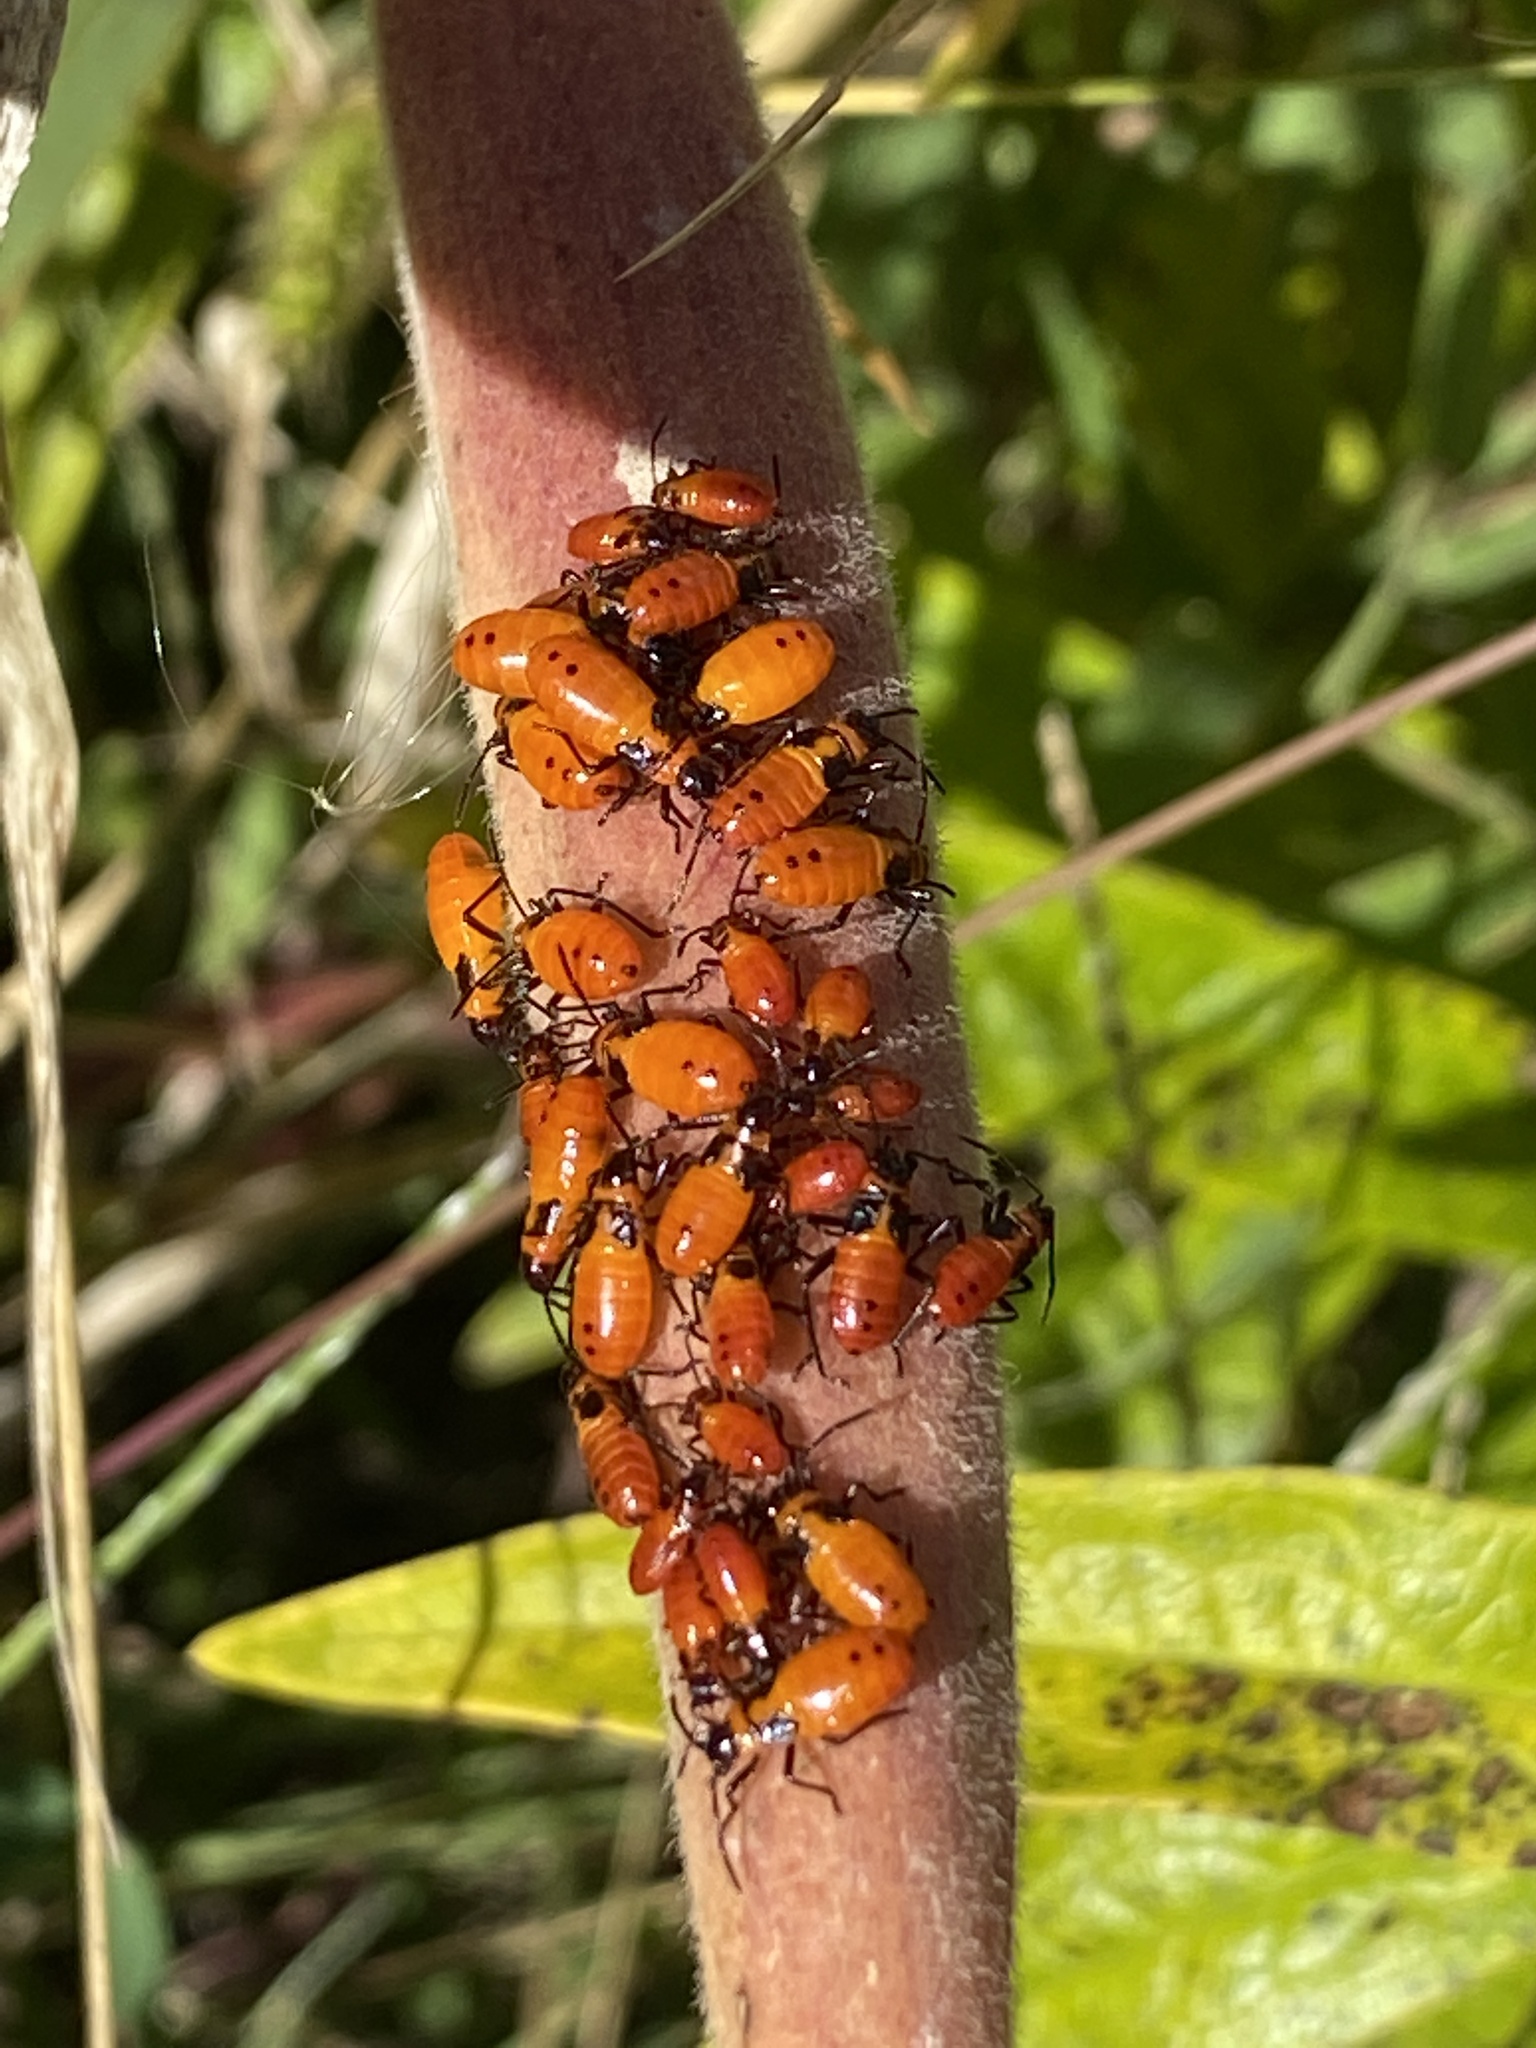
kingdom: Animalia
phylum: Arthropoda
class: Insecta
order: Hemiptera
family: Lygaeidae
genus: Oncopeltus
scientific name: Oncopeltus fasciatus
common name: Large milkweed bug
